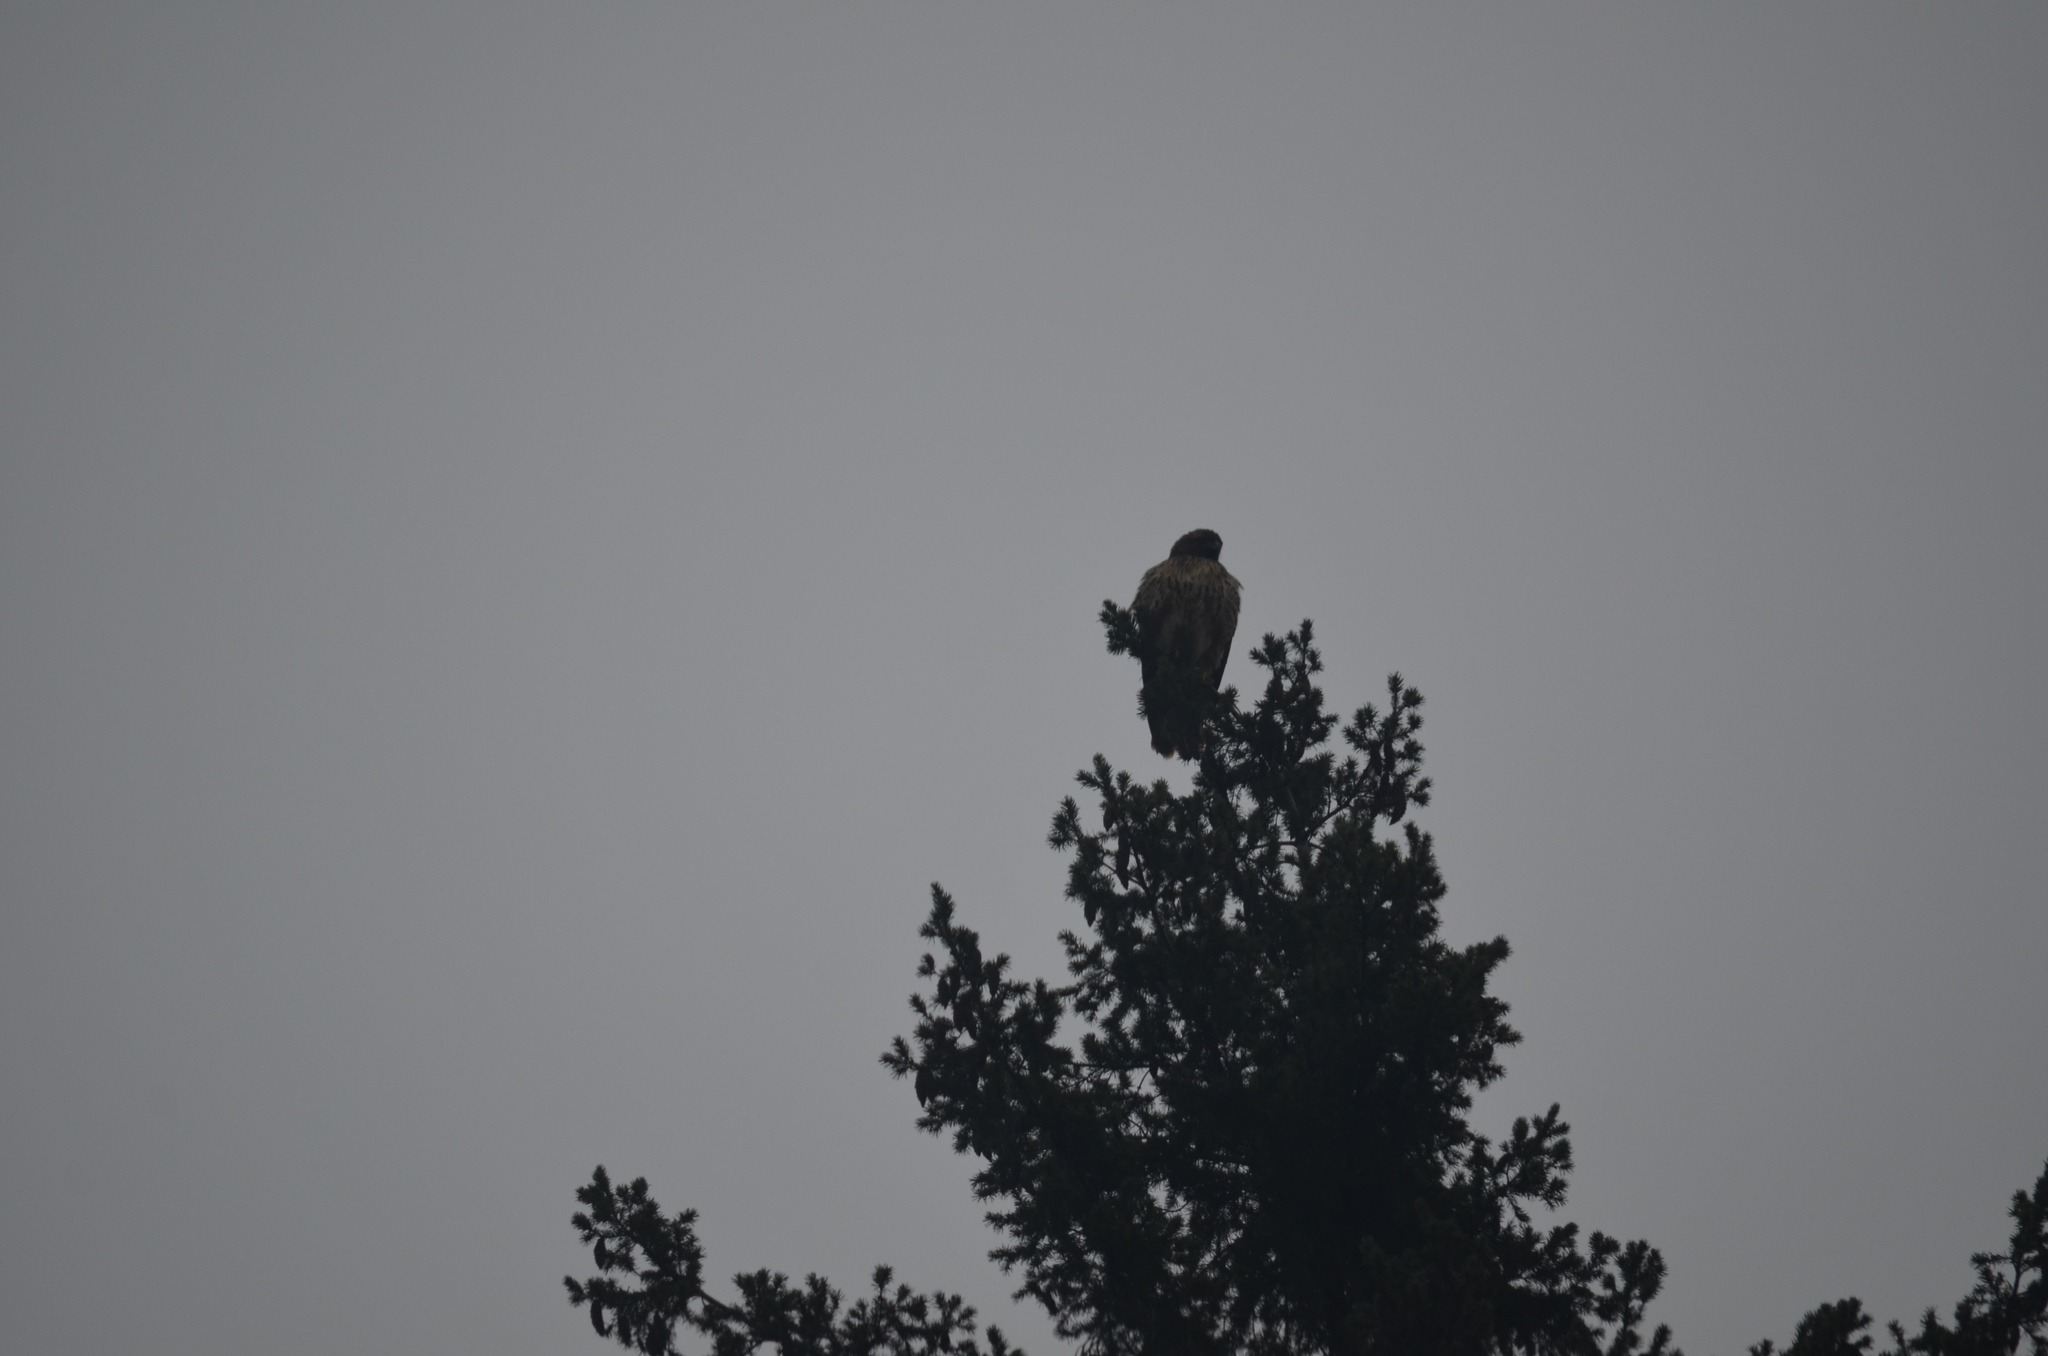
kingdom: Animalia
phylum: Chordata
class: Aves
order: Accipitriformes
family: Accipitridae
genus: Buteo
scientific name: Buteo jamaicensis
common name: Red-tailed hawk
